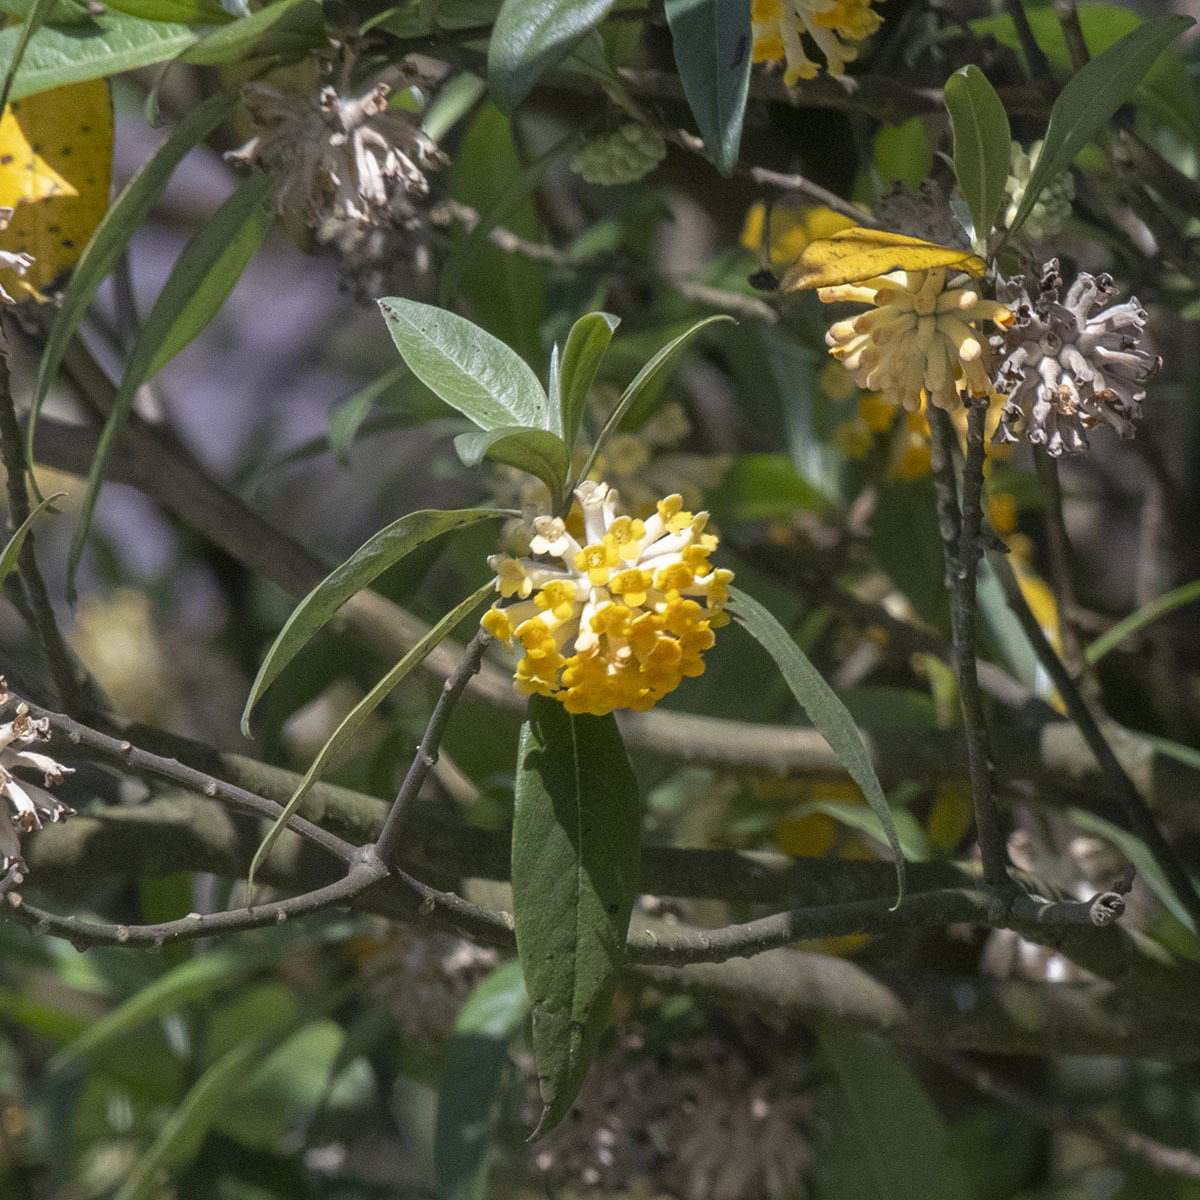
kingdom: Plantae
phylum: Tracheophyta
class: Magnoliopsida
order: Malvales
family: Thymelaeaceae
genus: Edgeworthia
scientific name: Edgeworthia gardneri
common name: Nepalese paperbush
